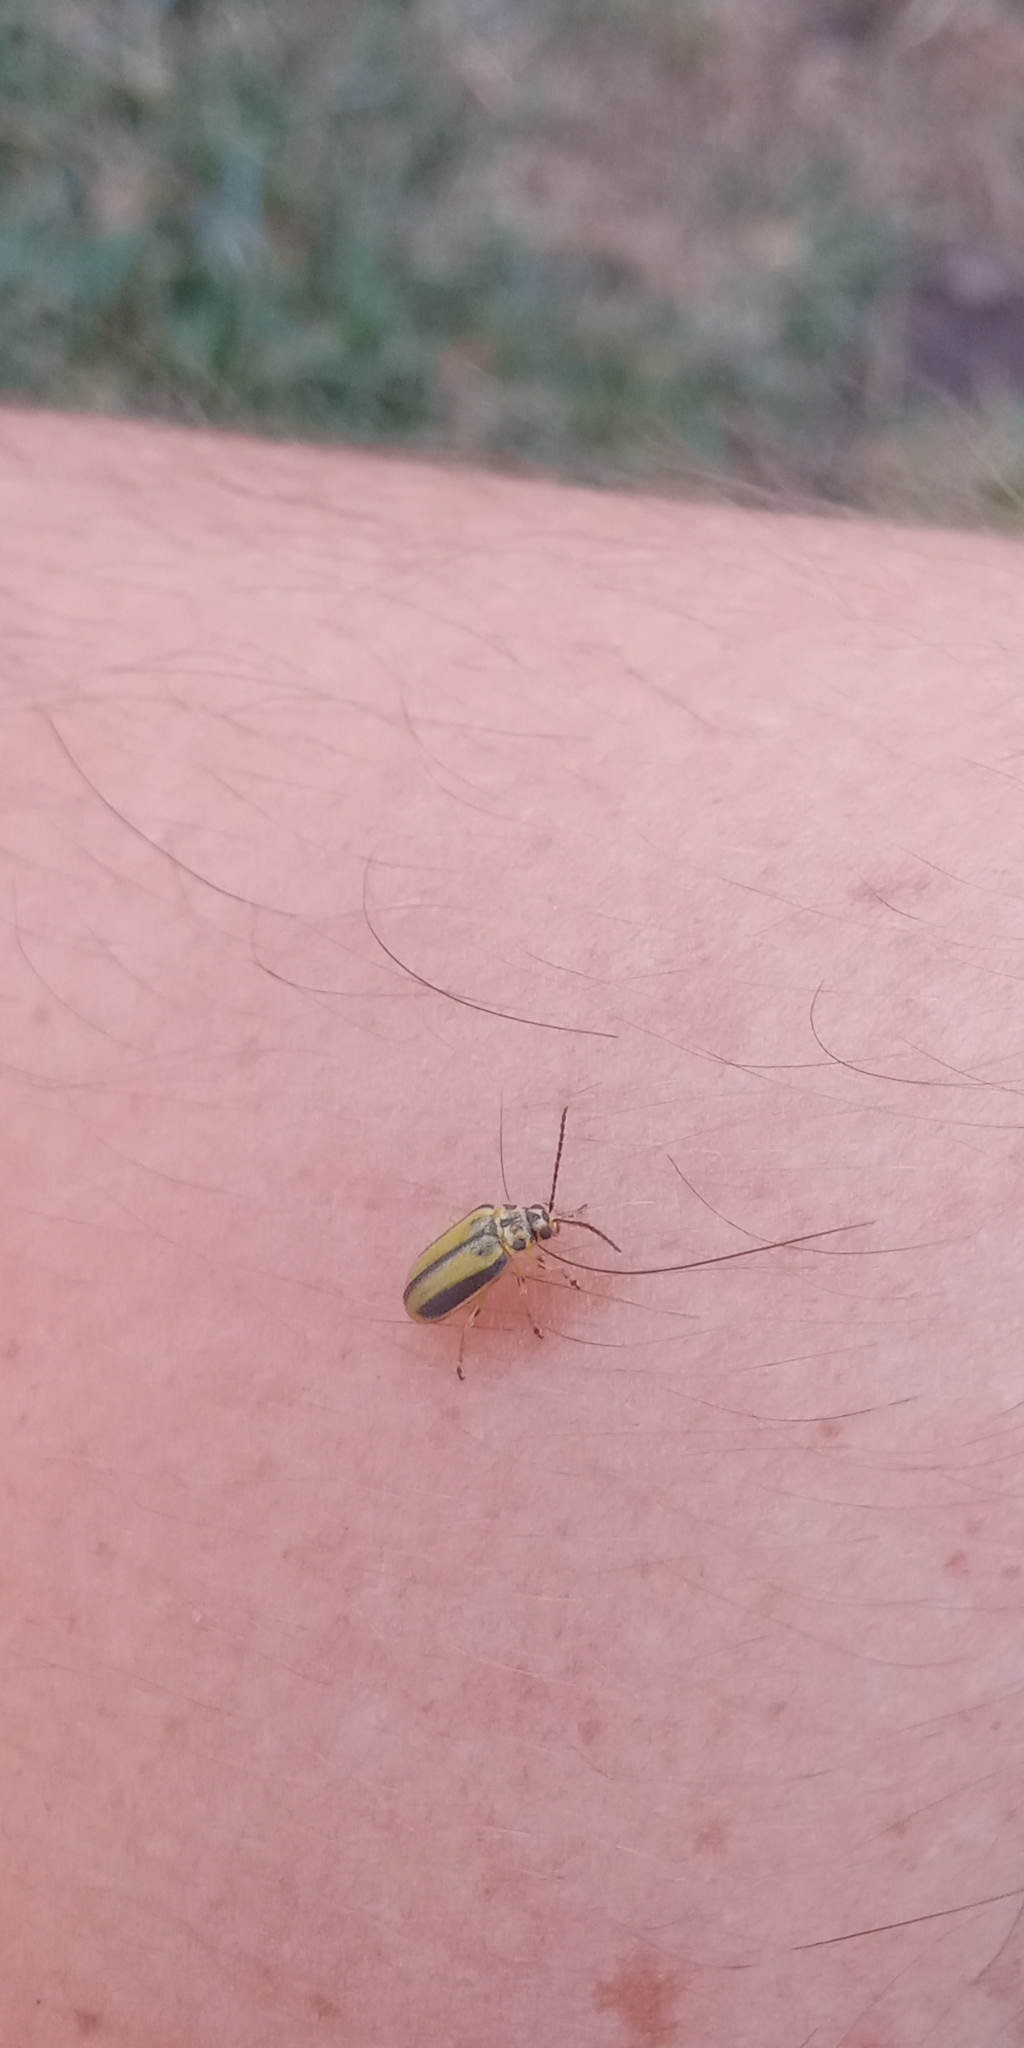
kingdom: Animalia
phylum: Arthropoda
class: Insecta
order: Coleoptera
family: Chrysomelidae
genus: Xanthogaleruca
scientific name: Xanthogaleruca luteola
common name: Elm leaf beetle
